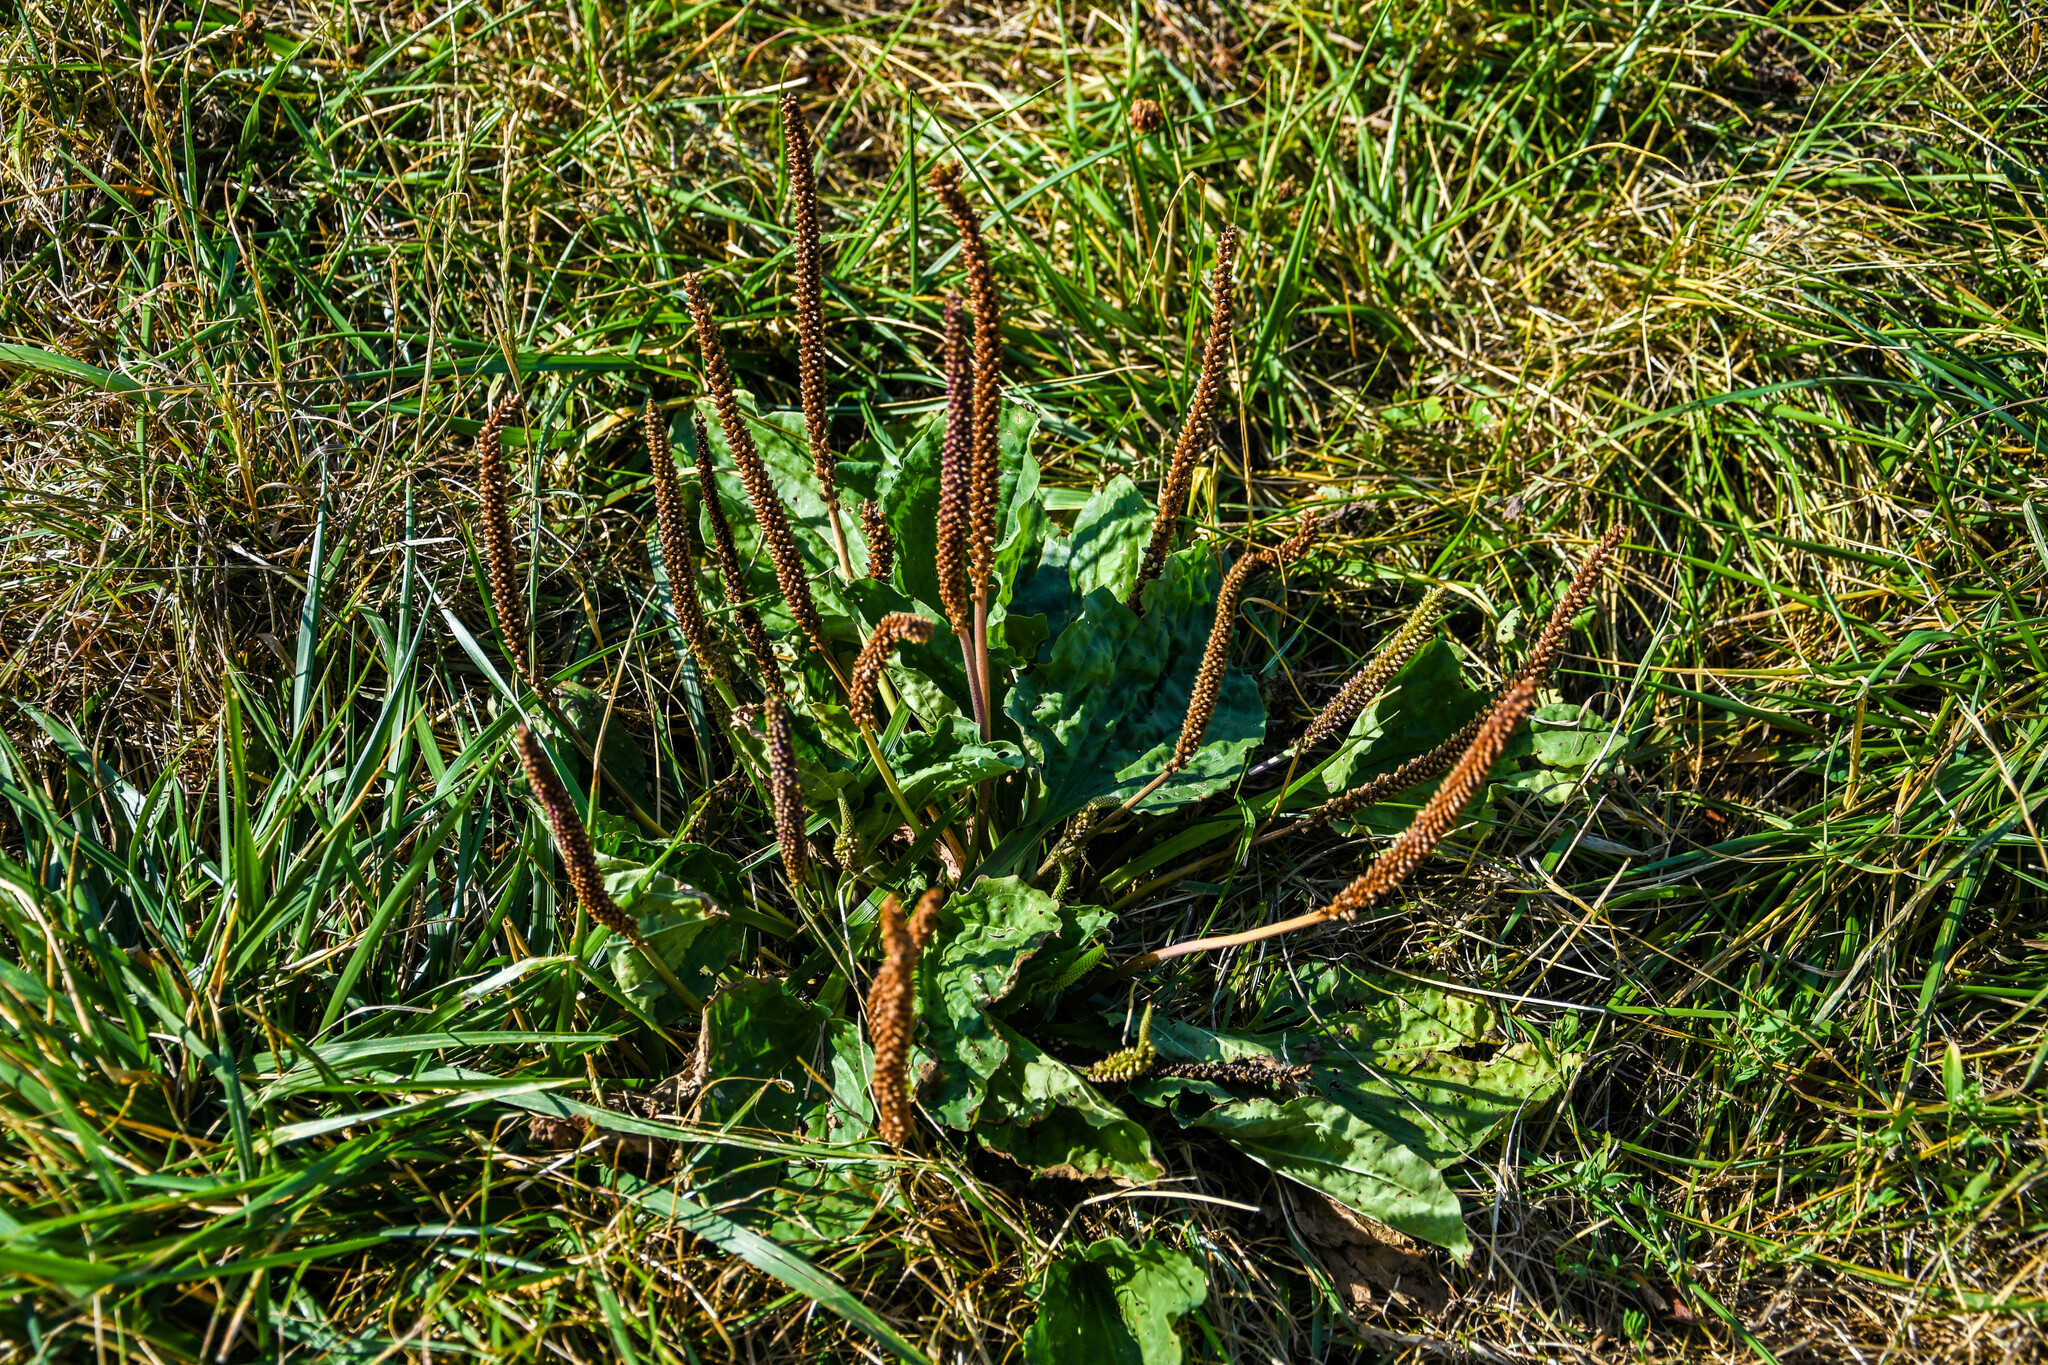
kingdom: Plantae
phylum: Tracheophyta
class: Magnoliopsida
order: Lamiales
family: Plantaginaceae
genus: Plantago
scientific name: Plantago major
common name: Common plantain
